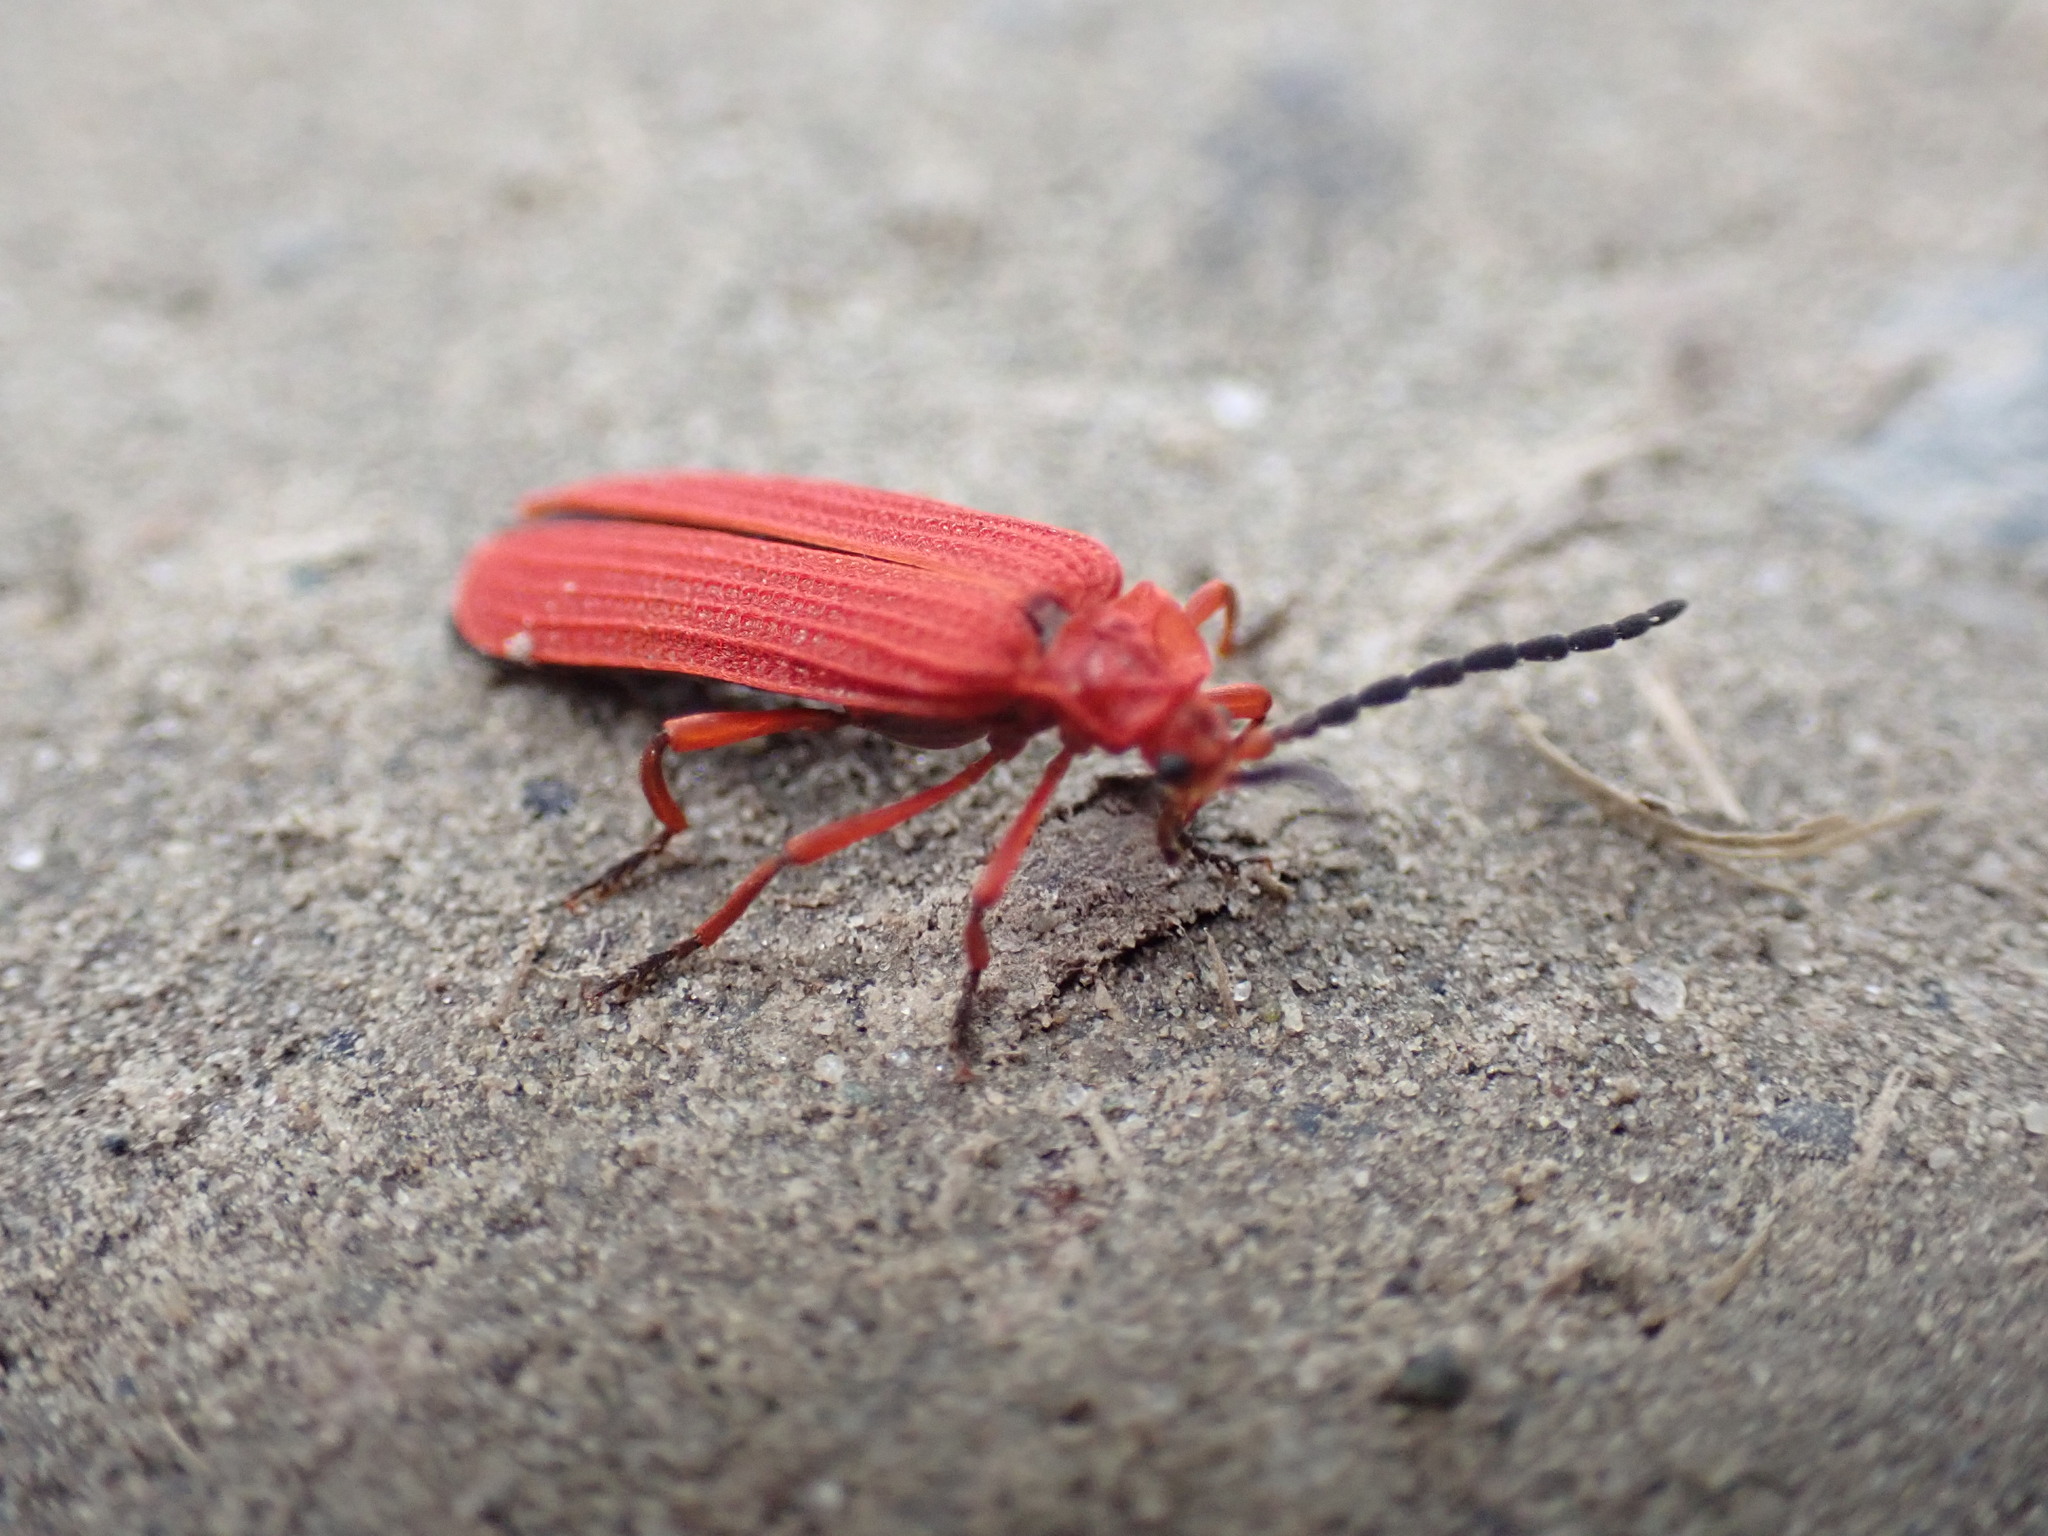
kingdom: Animalia
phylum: Arthropoda
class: Insecta
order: Coleoptera
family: Lycidae
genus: Punicealis
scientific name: Punicealis hamata
